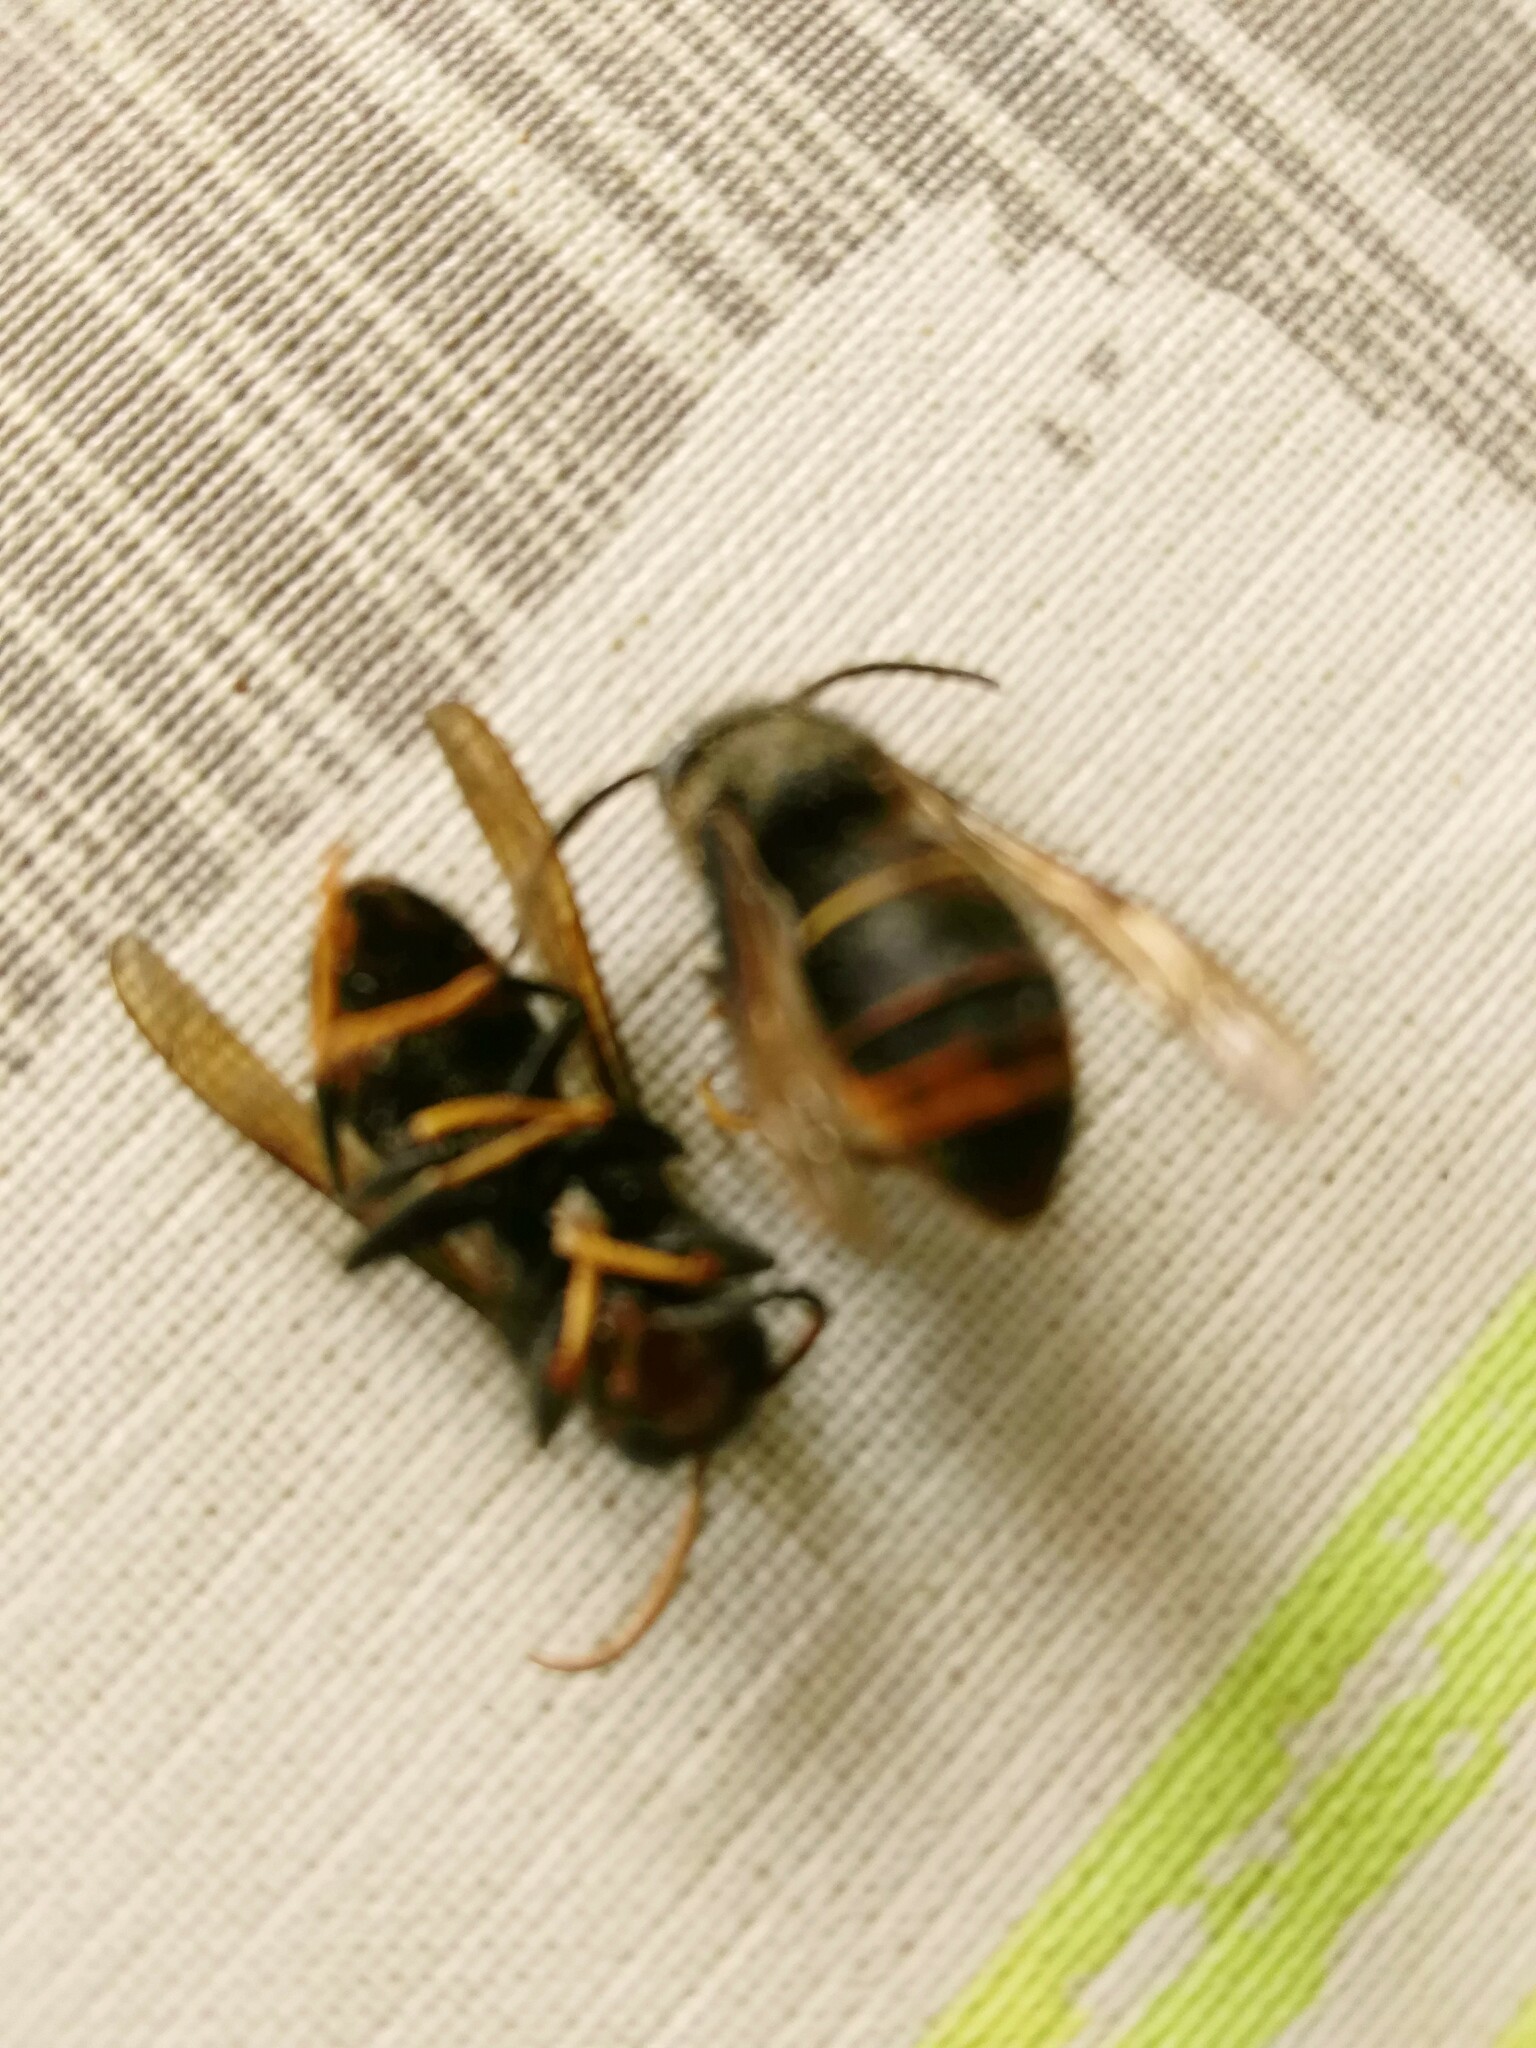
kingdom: Animalia
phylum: Arthropoda
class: Insecta
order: Hymenoptera
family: Vespidae
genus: Vespa
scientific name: Vespa velutina
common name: Asian hornet
